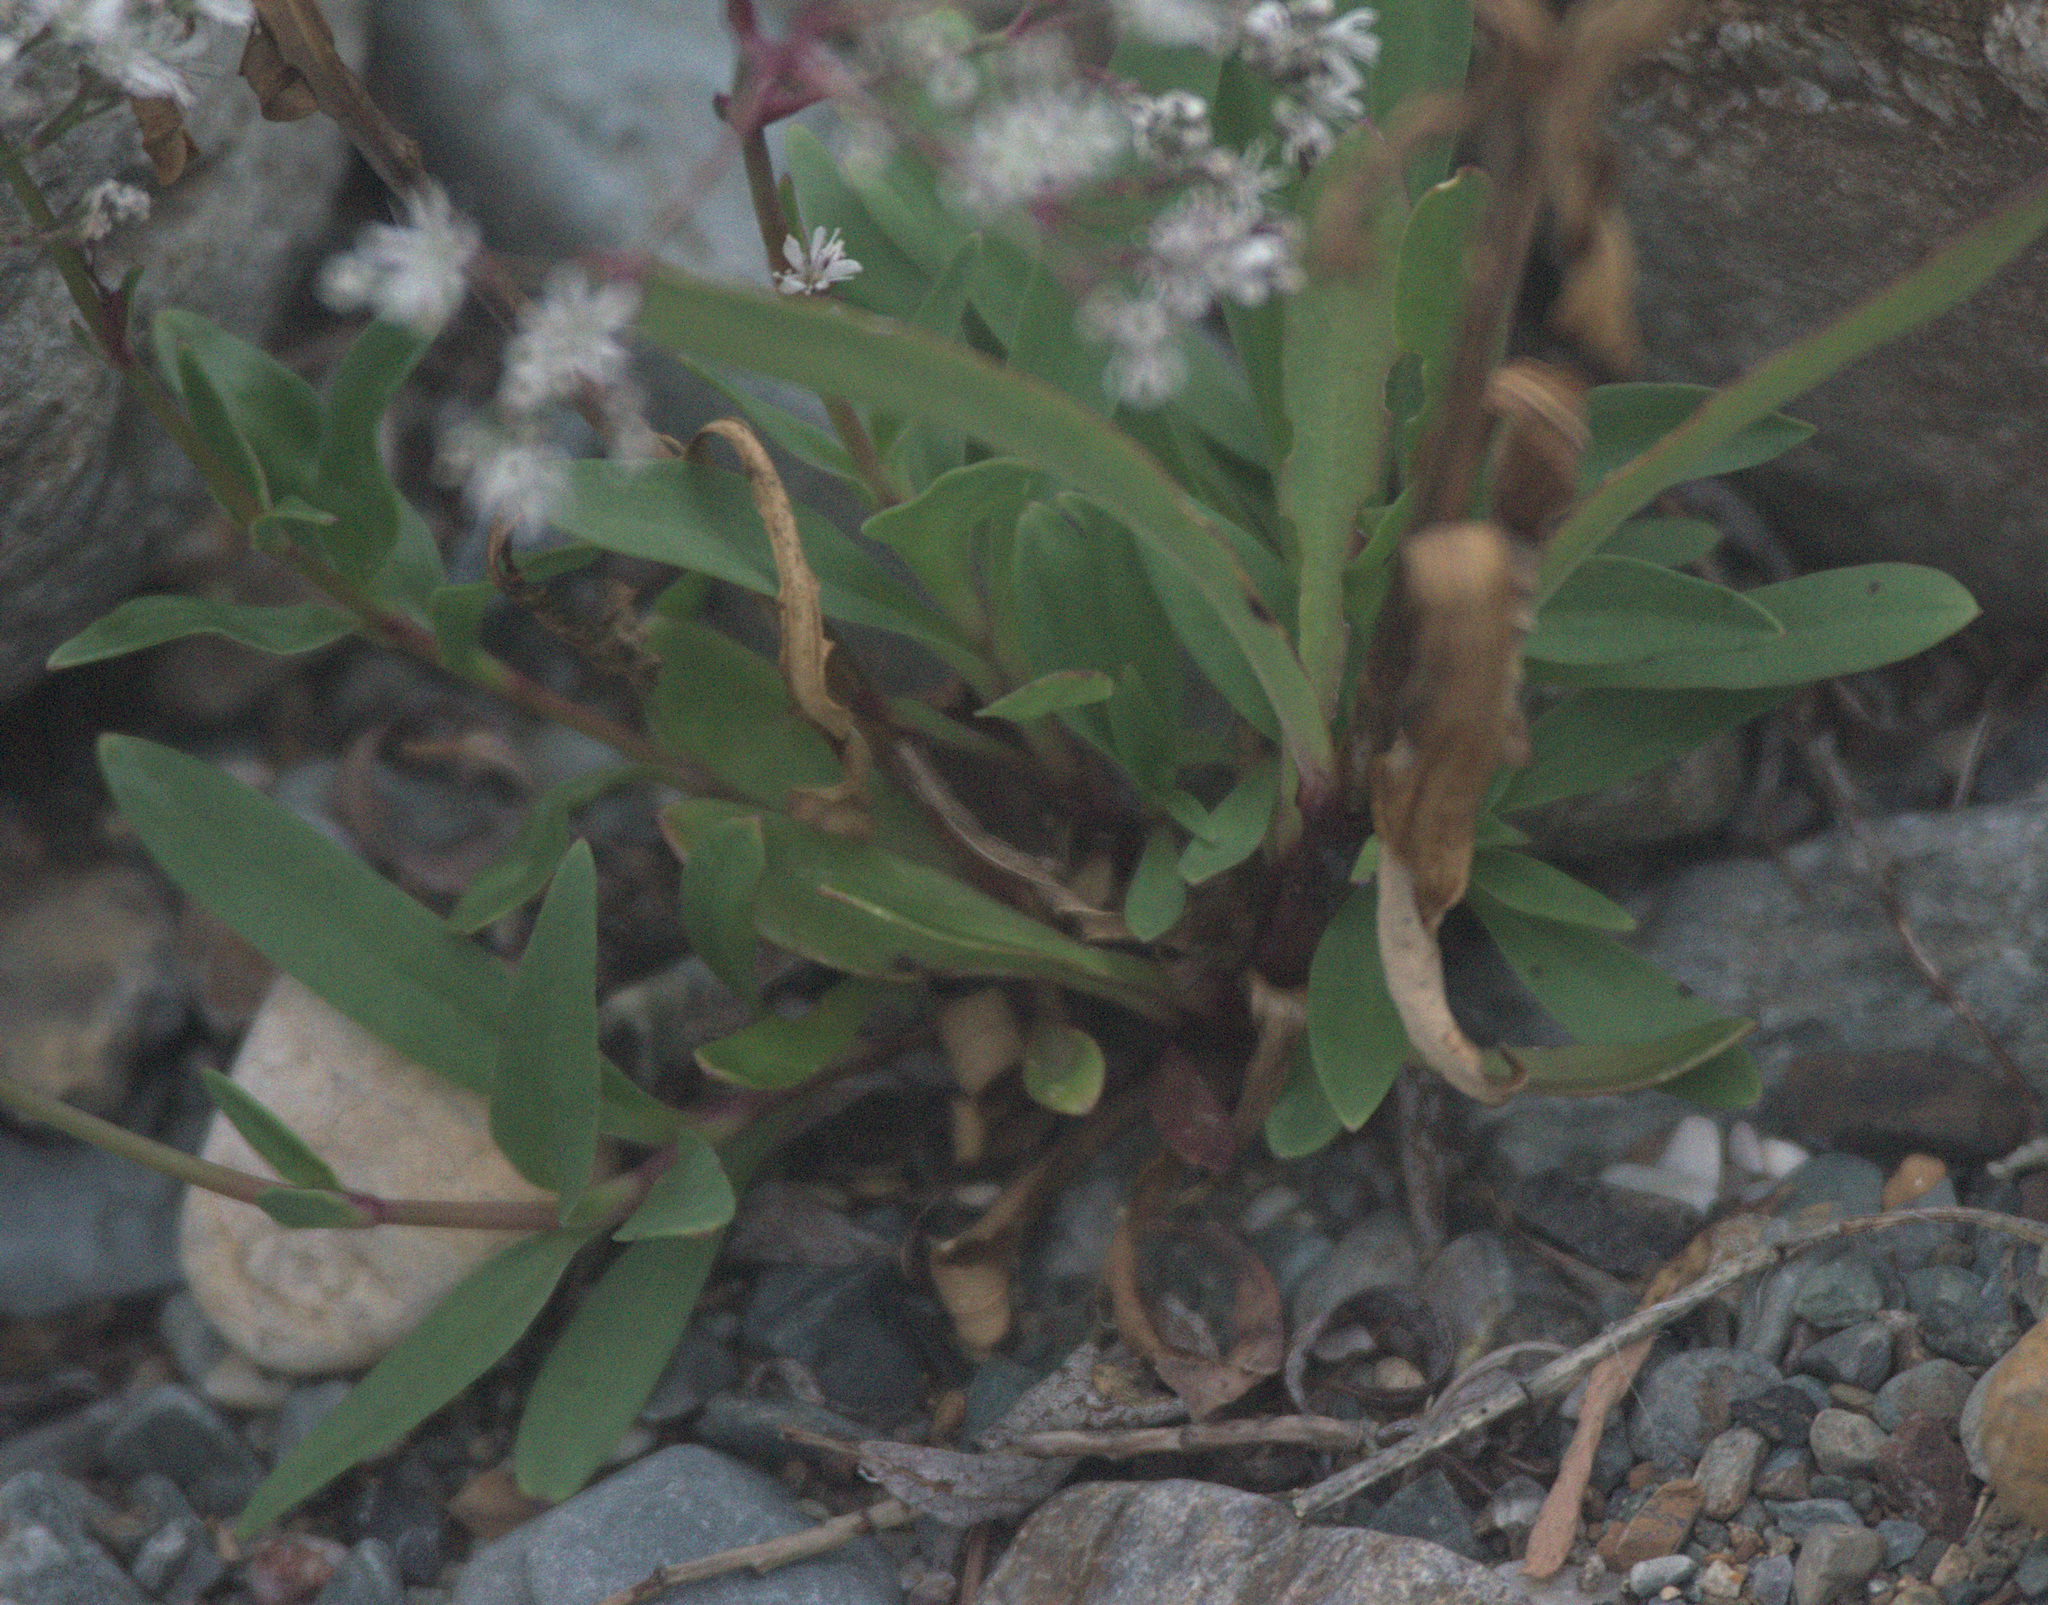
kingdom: Plantae
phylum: Tracheophyta
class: Magnoliopsida
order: Caryophyllales
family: Caryophyllaceae
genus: Gypsophila
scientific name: Gypsophila altissima
